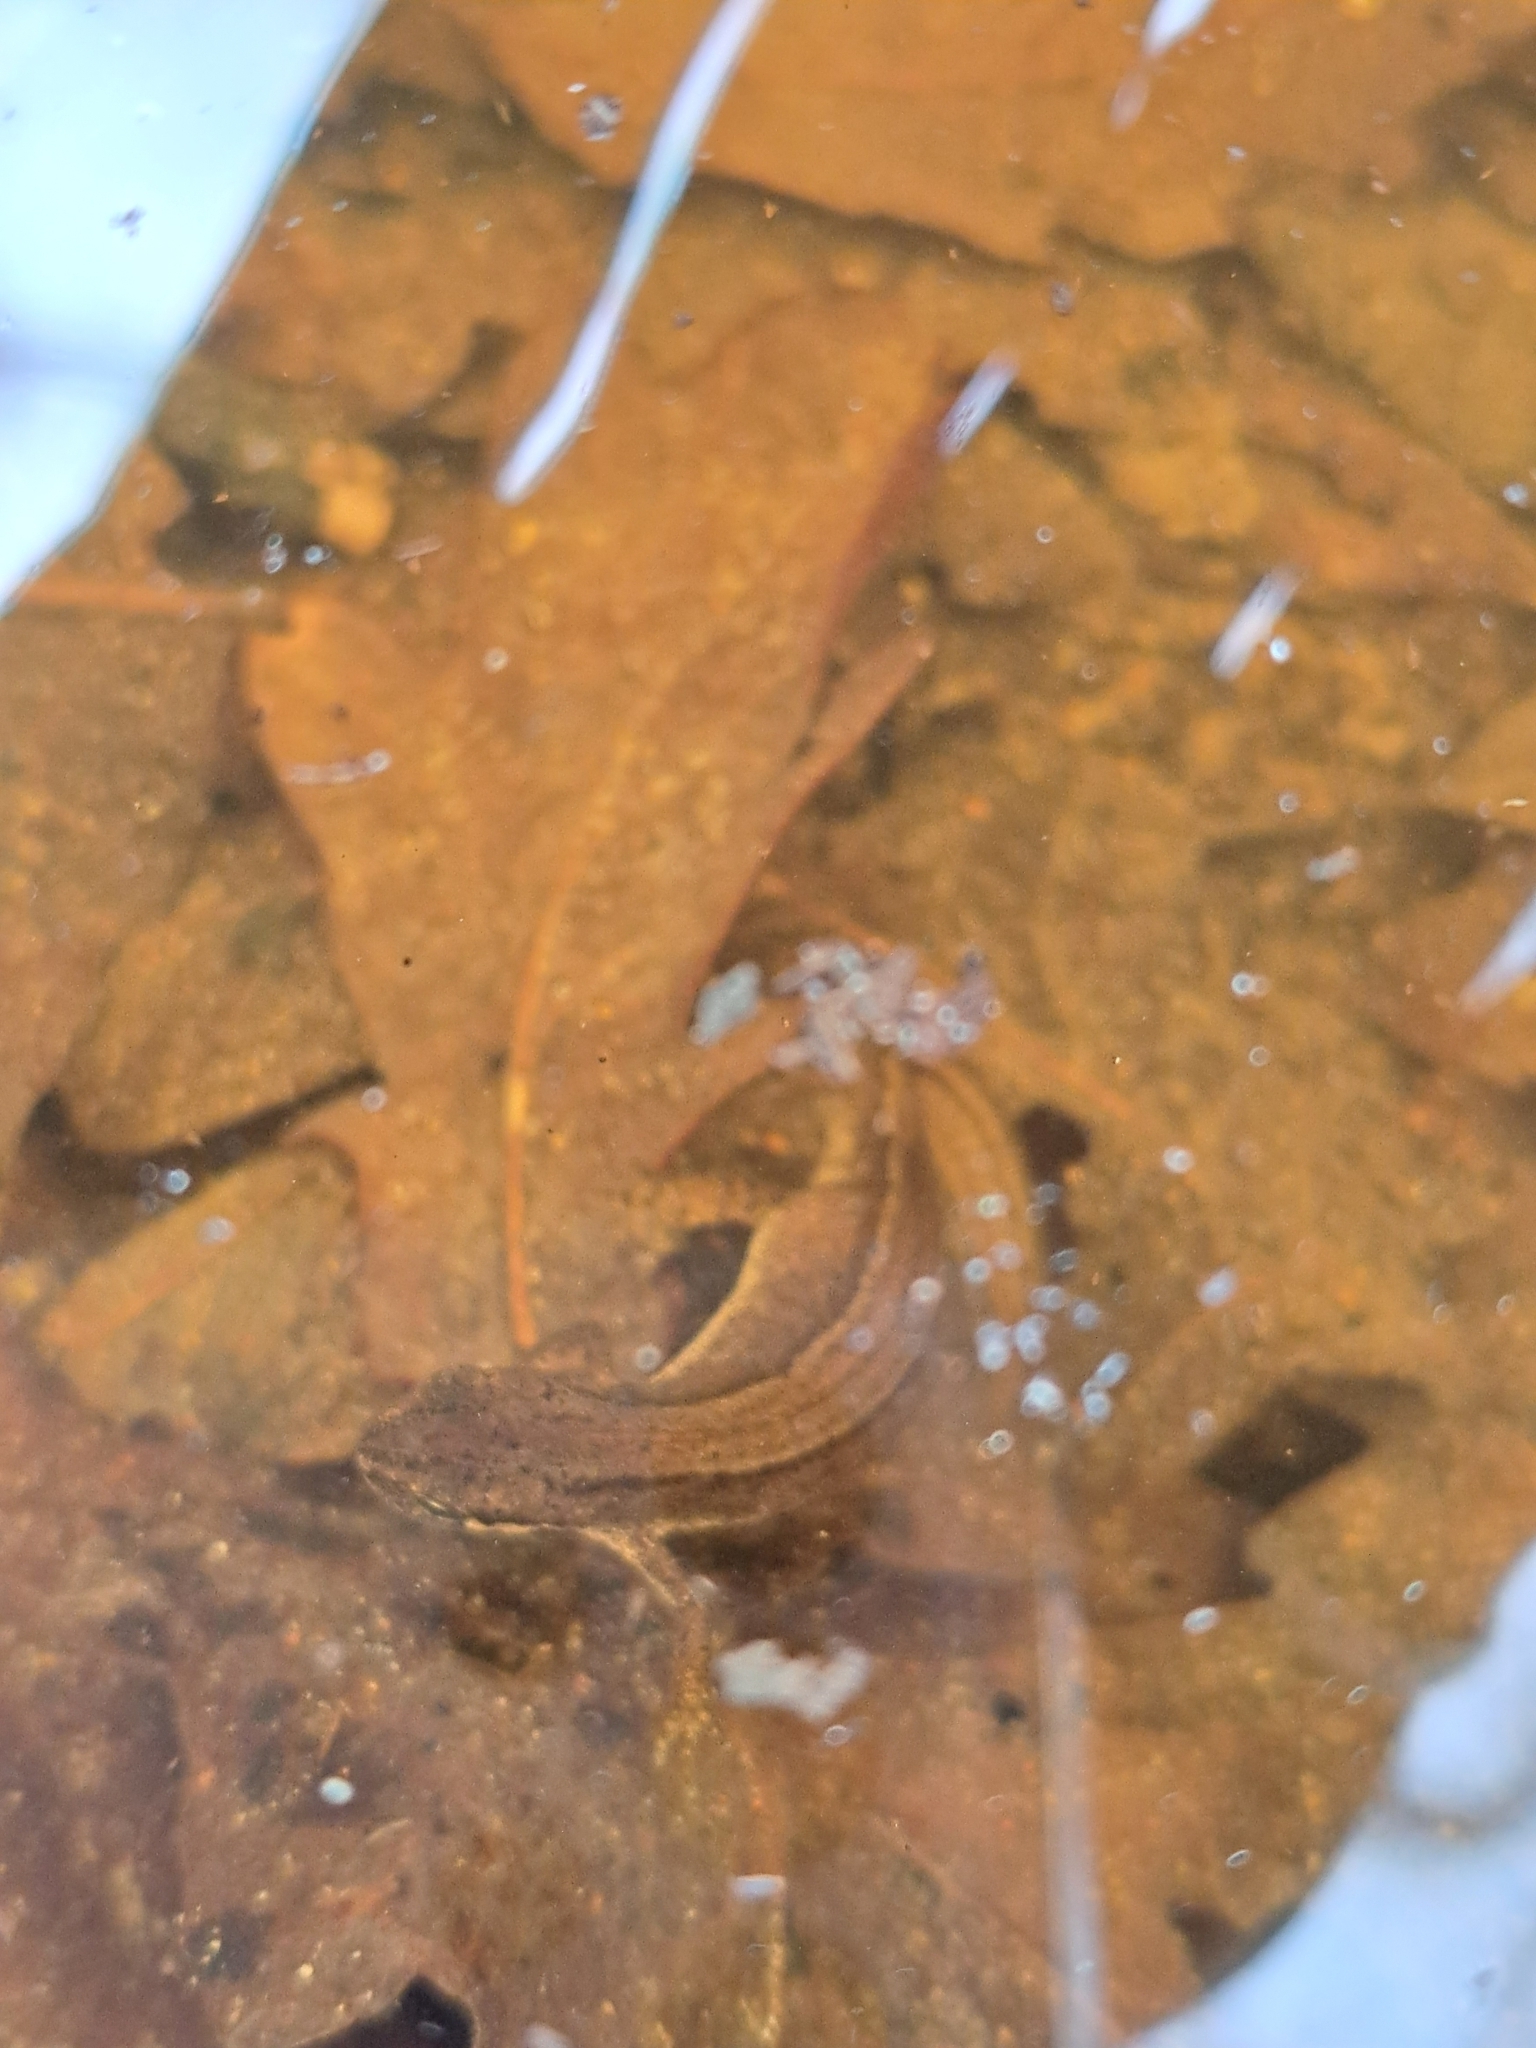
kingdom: Animalia
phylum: Chordata
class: Amphibia
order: Caudata
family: Salamandridae
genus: Lissotriton
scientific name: Lissotriton vulgaris
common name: Smooth newt
